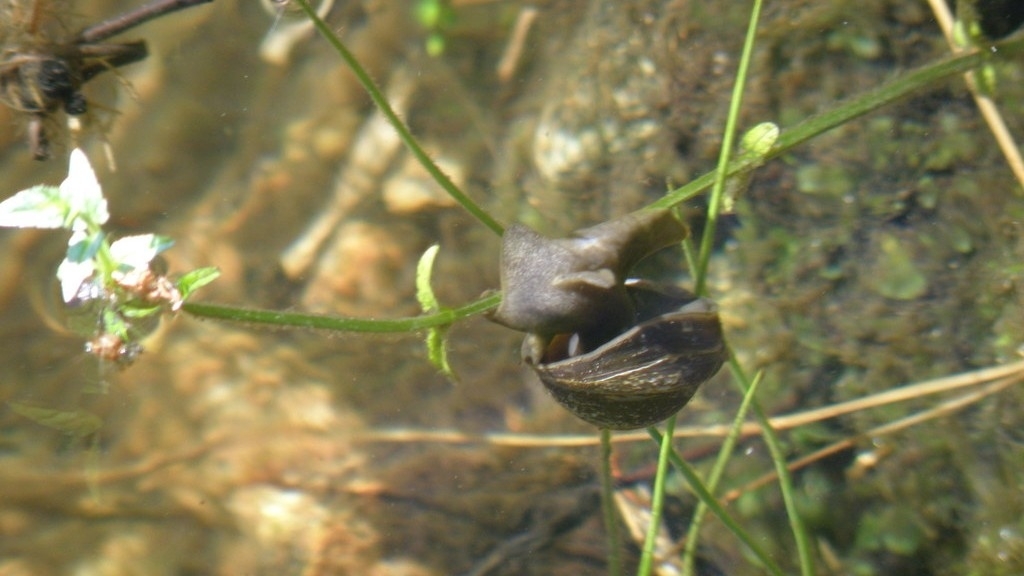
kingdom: Animalia
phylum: Mollusca
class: Gastropoda
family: Lymnaeidae
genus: Lymnaea
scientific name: Lymnaea stagnalis
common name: Great pond snail
